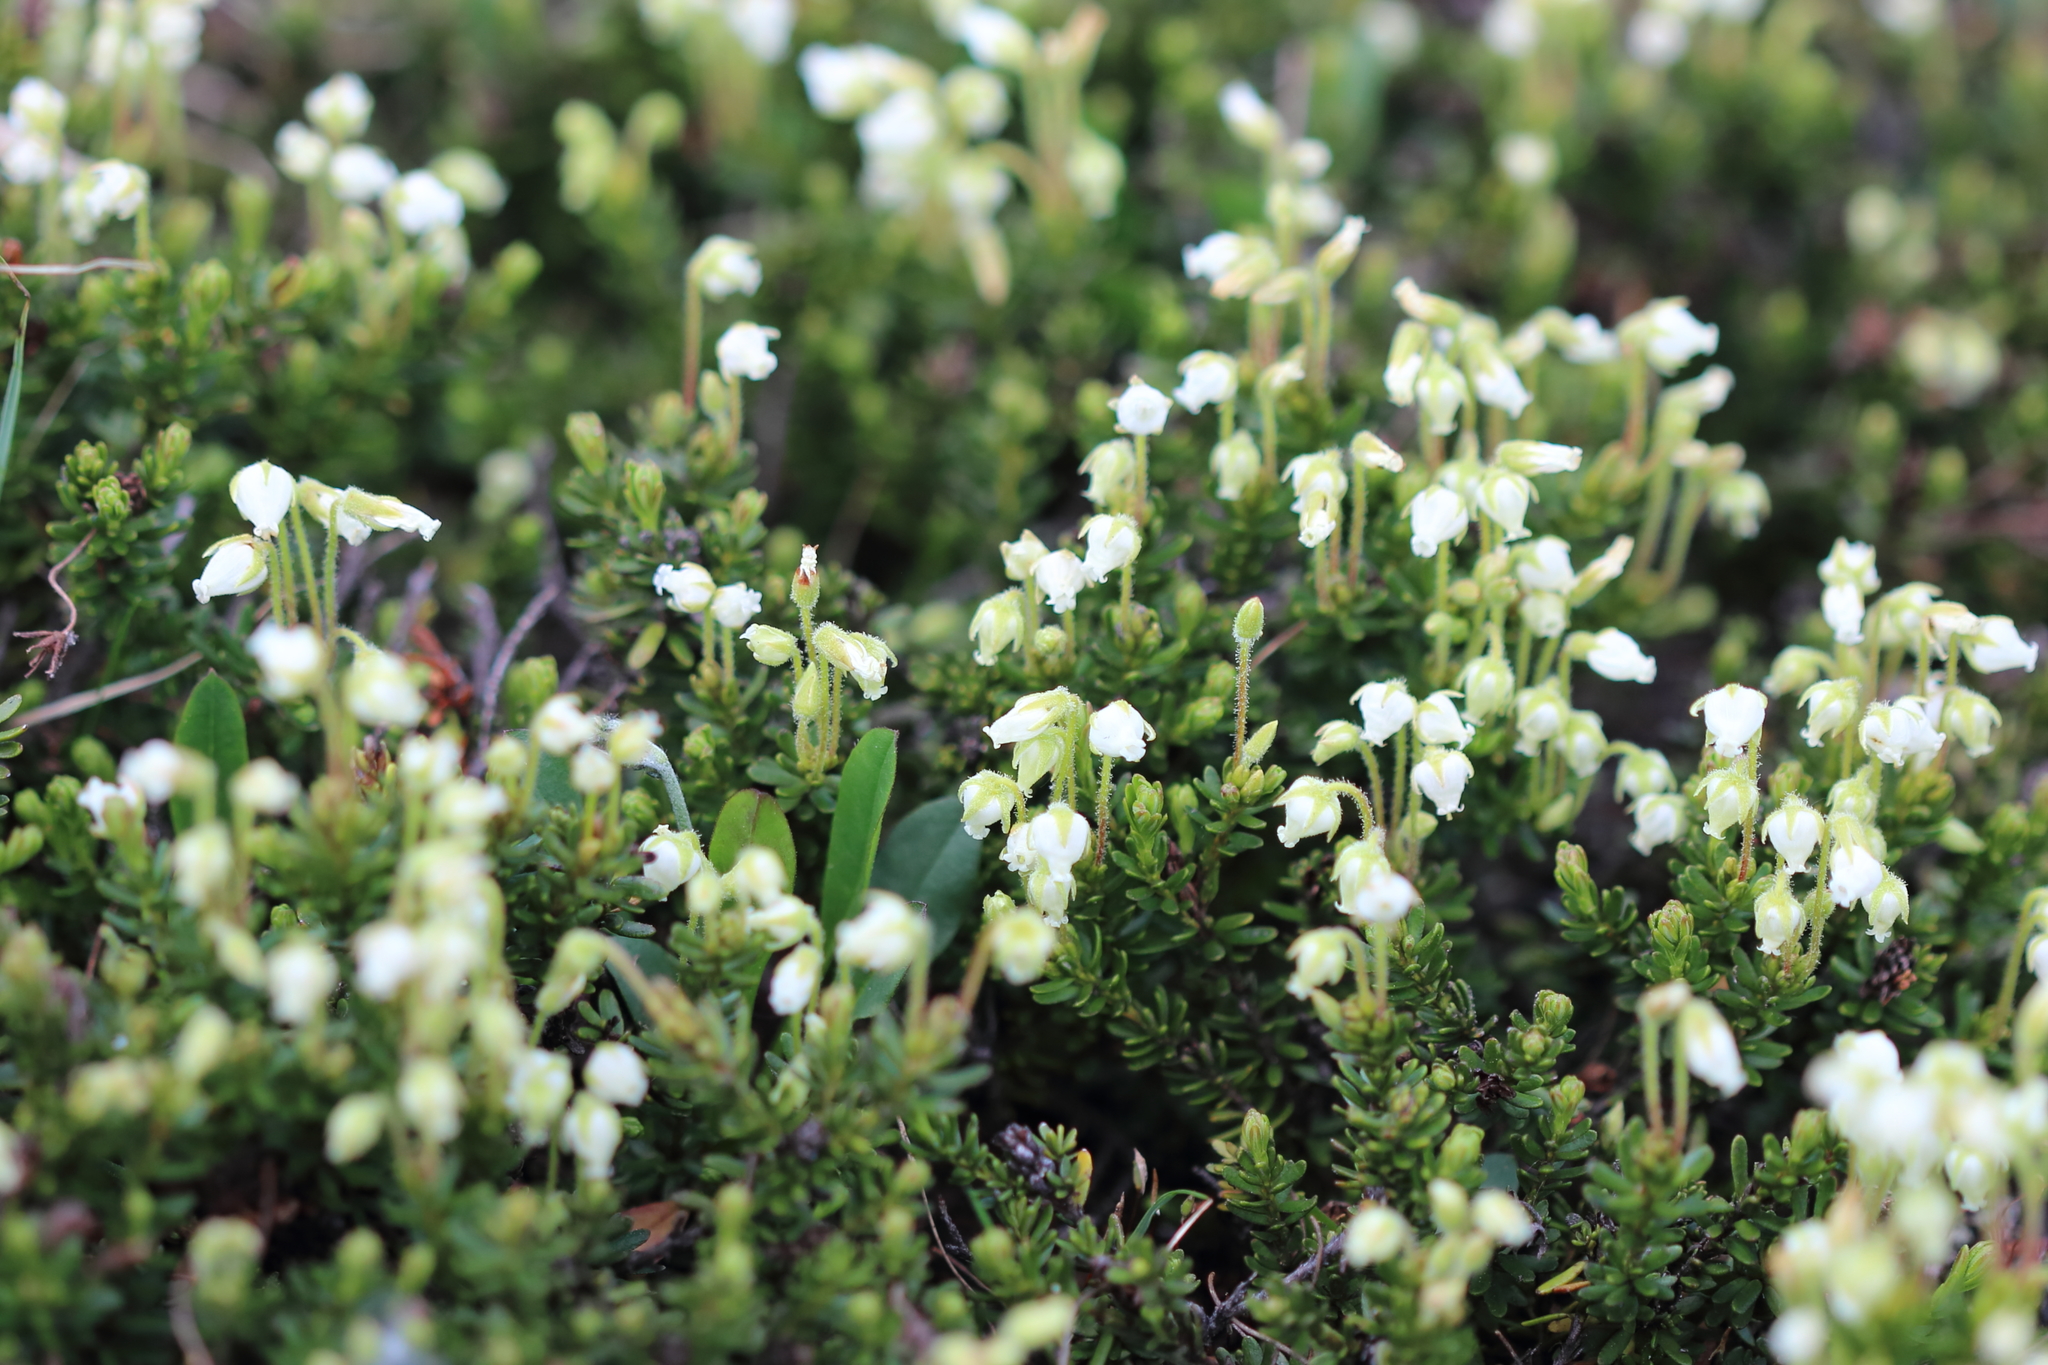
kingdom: Plantae
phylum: Tracheophyta
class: Magnoliopsida
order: Ericales
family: Ericaceae
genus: Phyllodoce
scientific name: Phyllodoce glanduliflora
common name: Cream mountain heather
